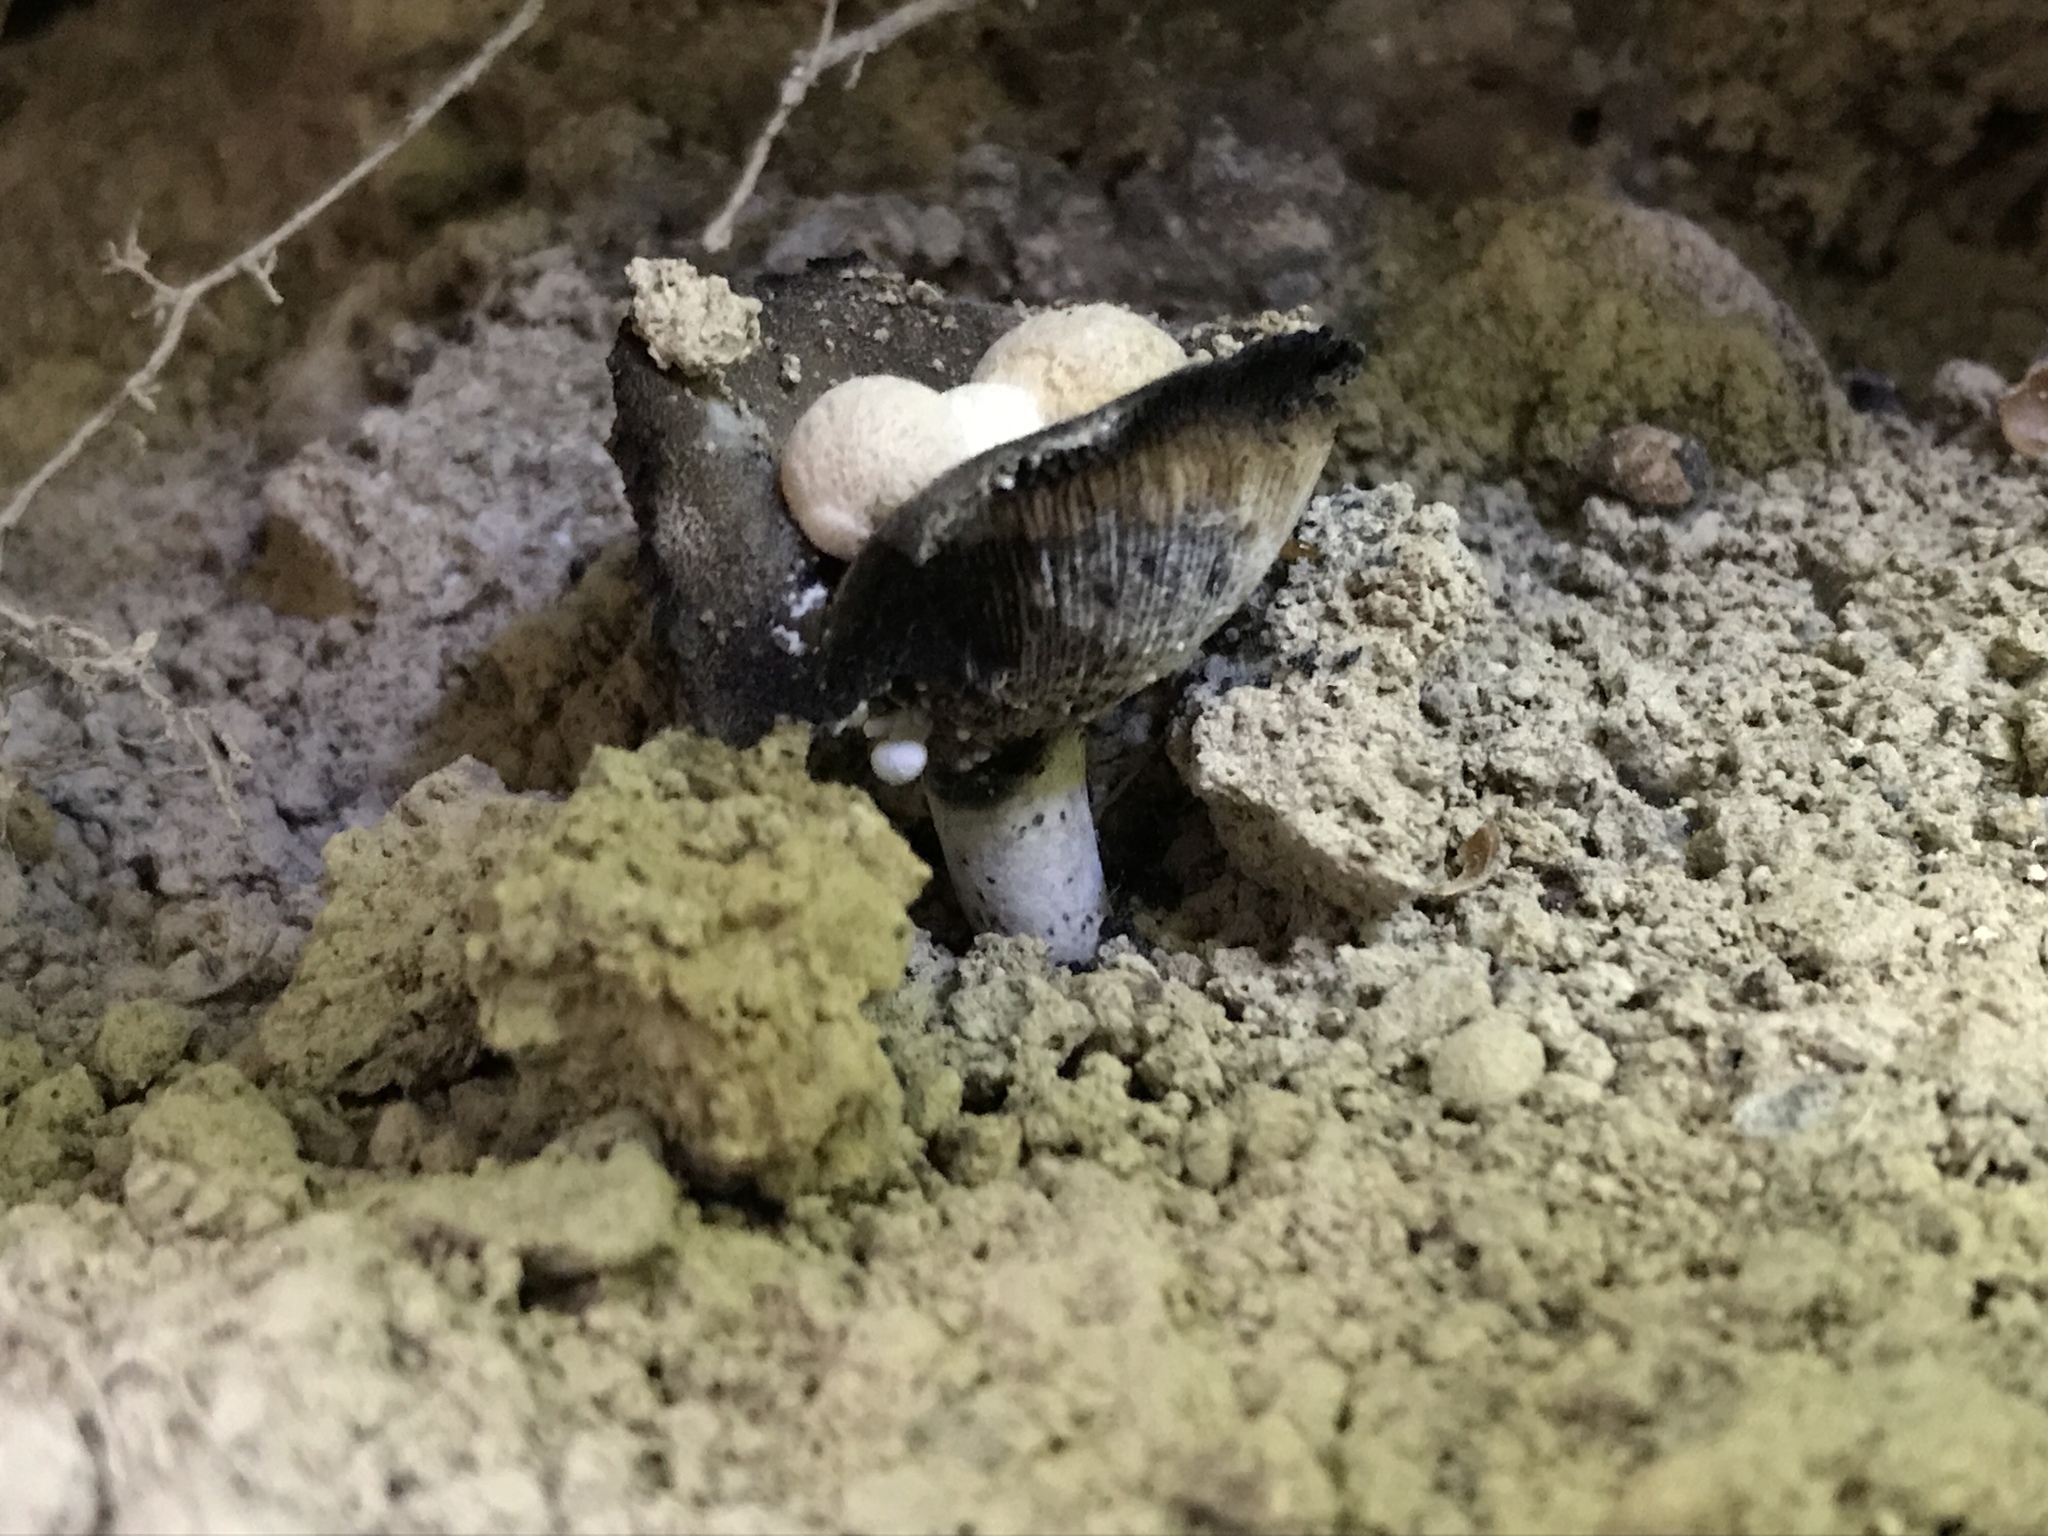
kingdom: Fungi
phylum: Basidiomycota
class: Agaricomycetes
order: Agaricales
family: Lyophyllaceae
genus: Asterophora
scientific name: Asterophora lycoperdoides
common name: Pick-a-back toadstool
